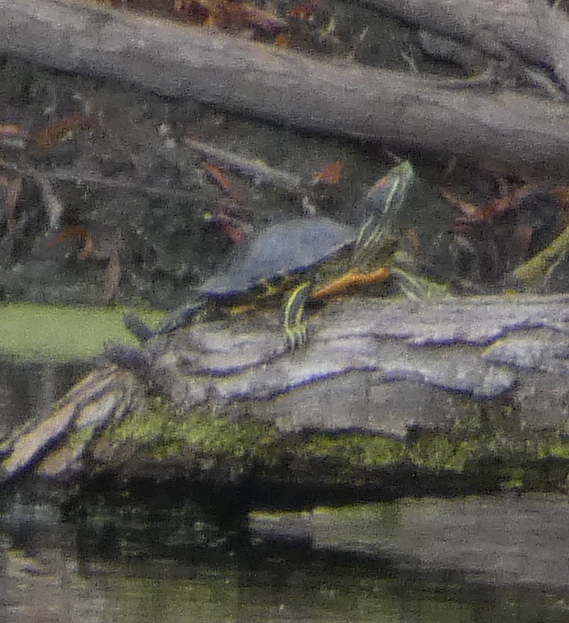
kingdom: Animalia
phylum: Chordata
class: Testudines
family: Emydidae
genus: Trachemys
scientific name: Trachemys scripta
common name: Slider
